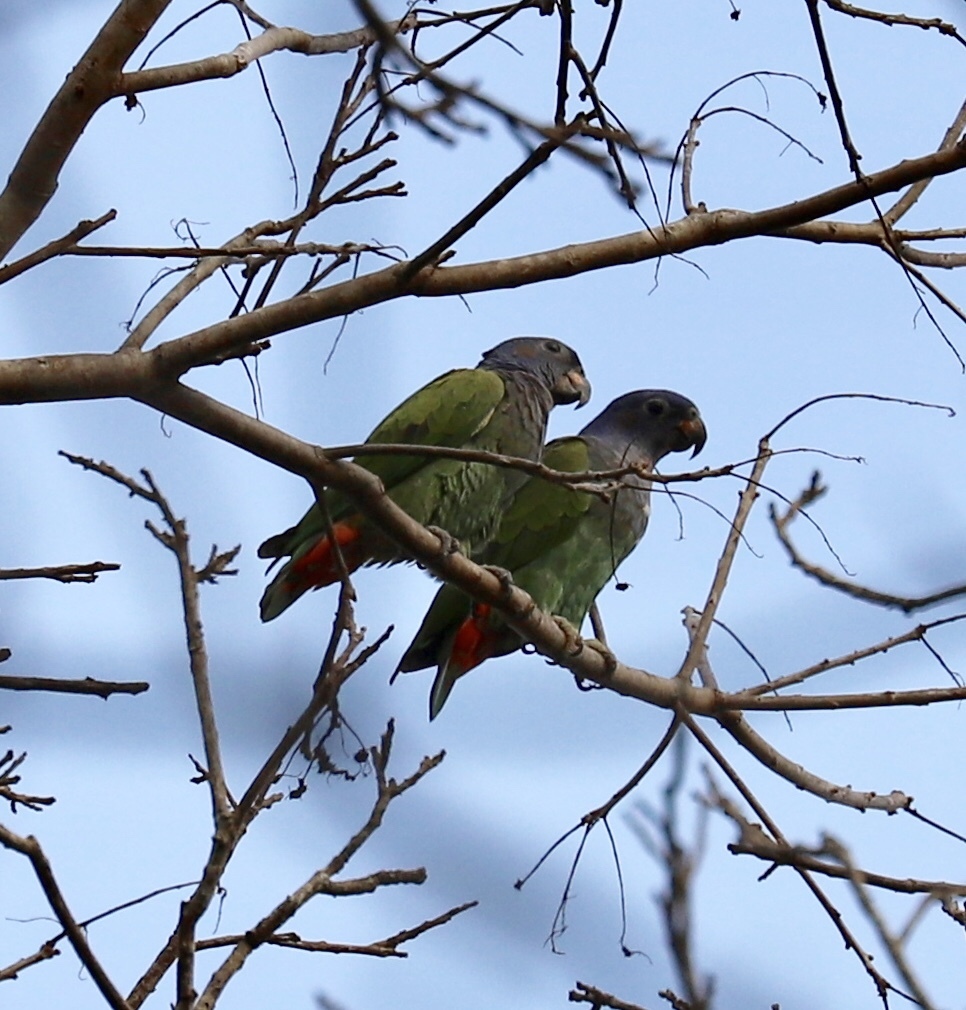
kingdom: Animalia
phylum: Chordata
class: Aves
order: Psittaciformes
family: Psittacidae
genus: Pionus
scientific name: Pionus menstruus
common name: Blue-headed parrot
